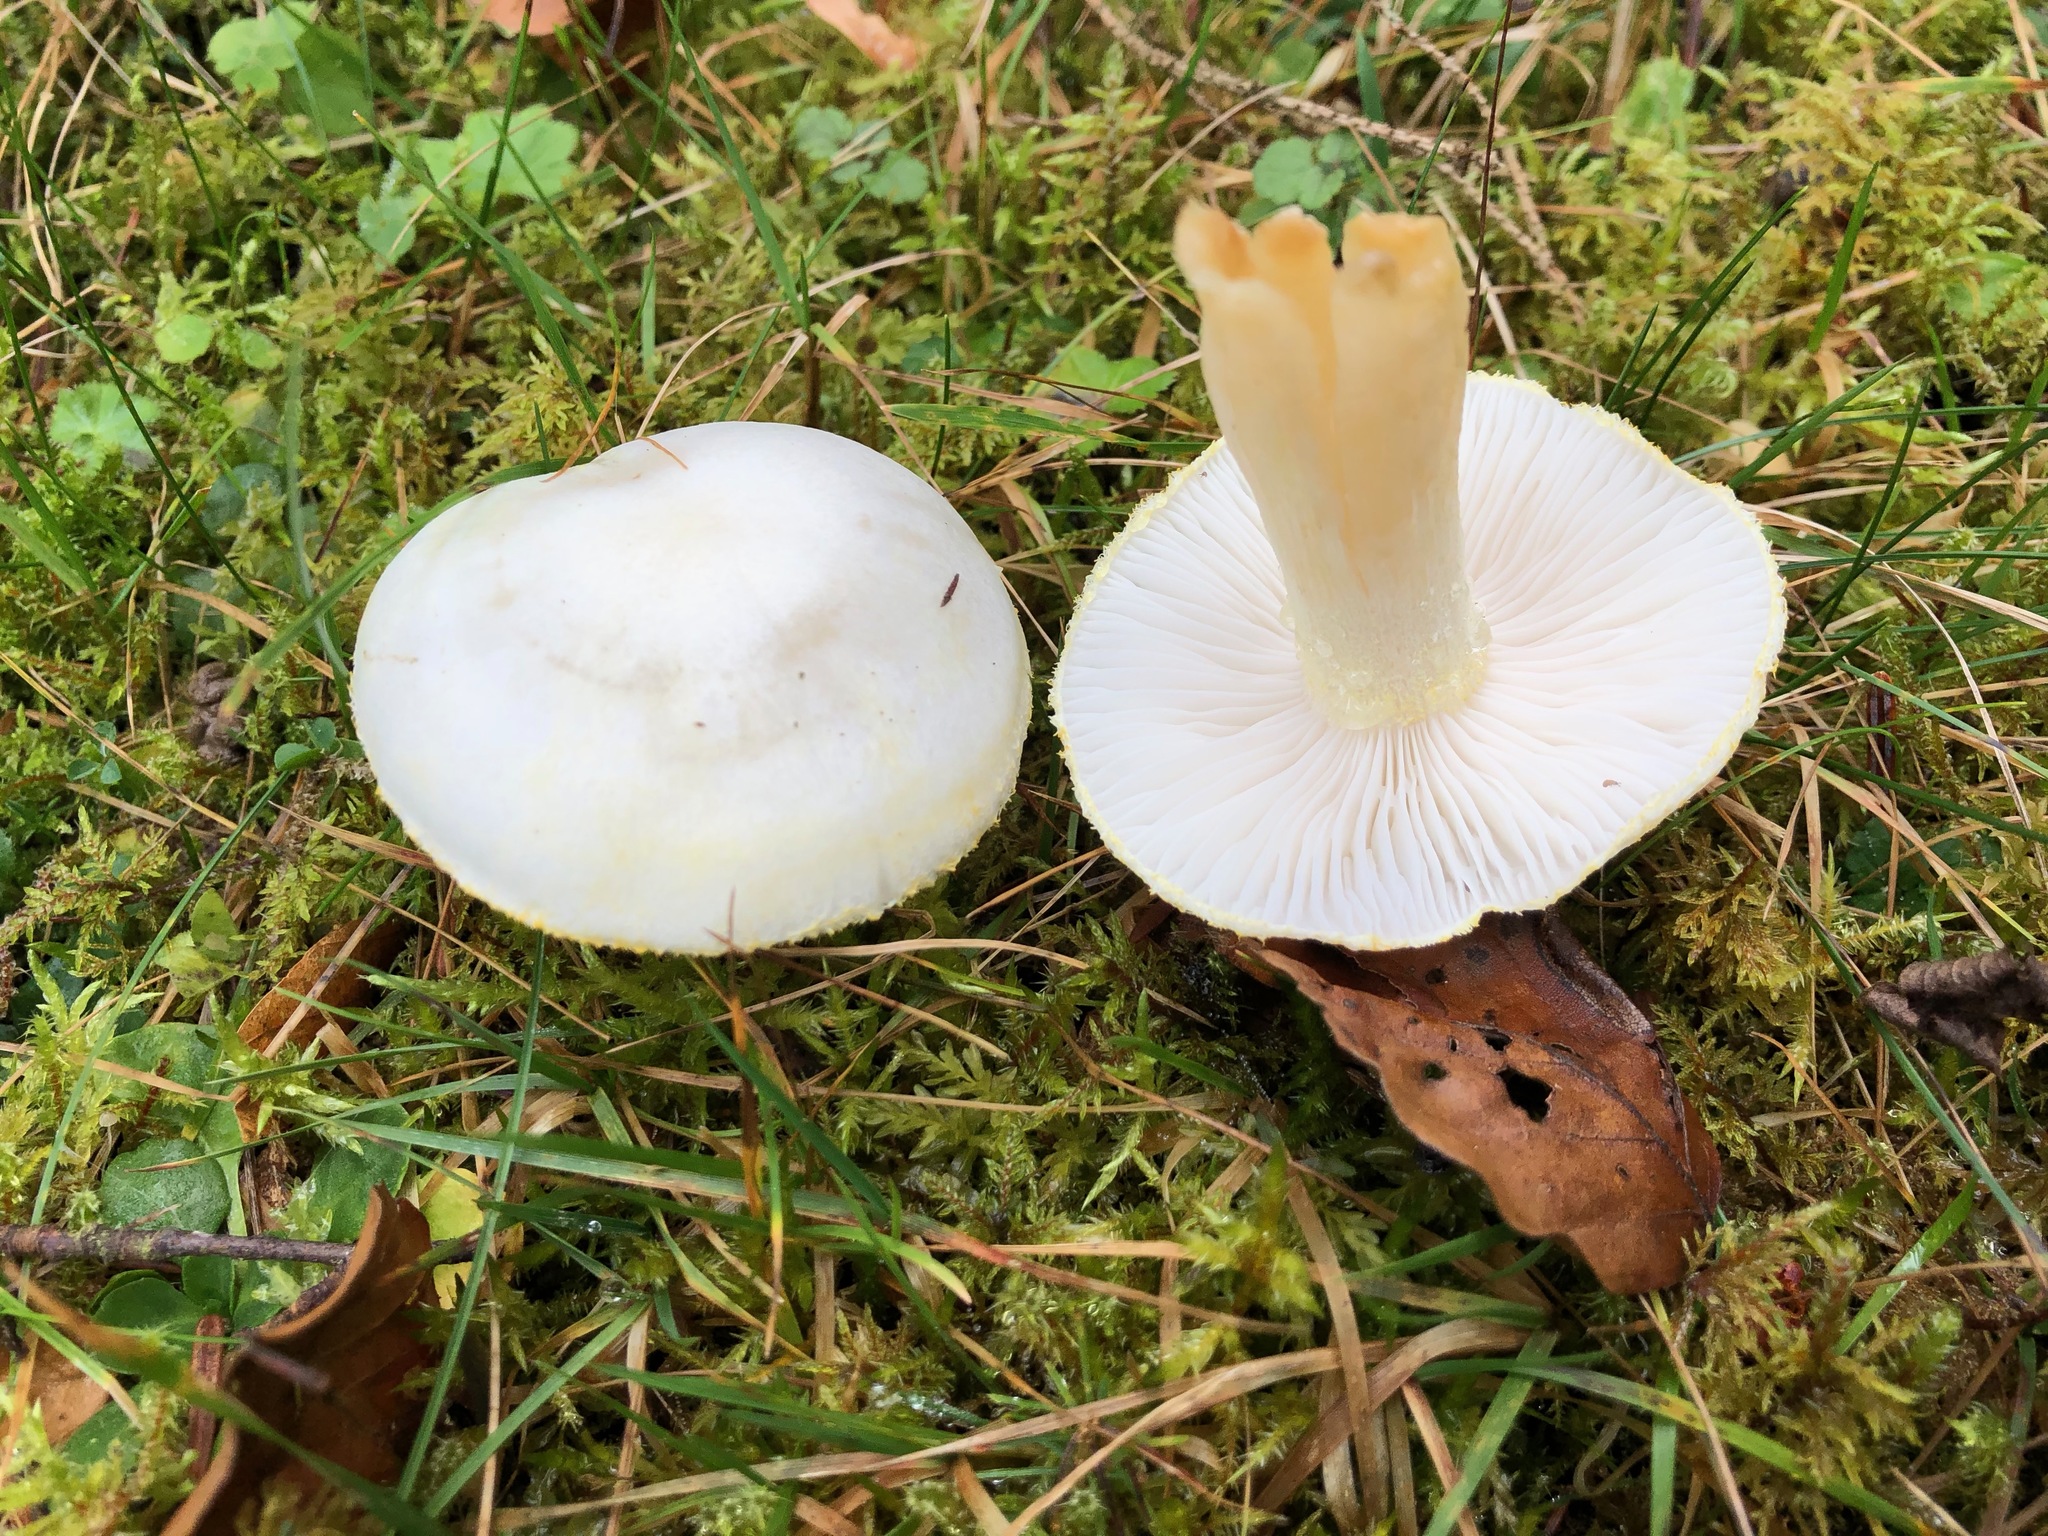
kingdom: Fungi
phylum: Basidiomycota
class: Agaricomycetes
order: Agaricales
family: Hygrophoraceae
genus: Hygrophorus
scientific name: Hygrophorus chrysodon
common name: Gold flecked woodwax
